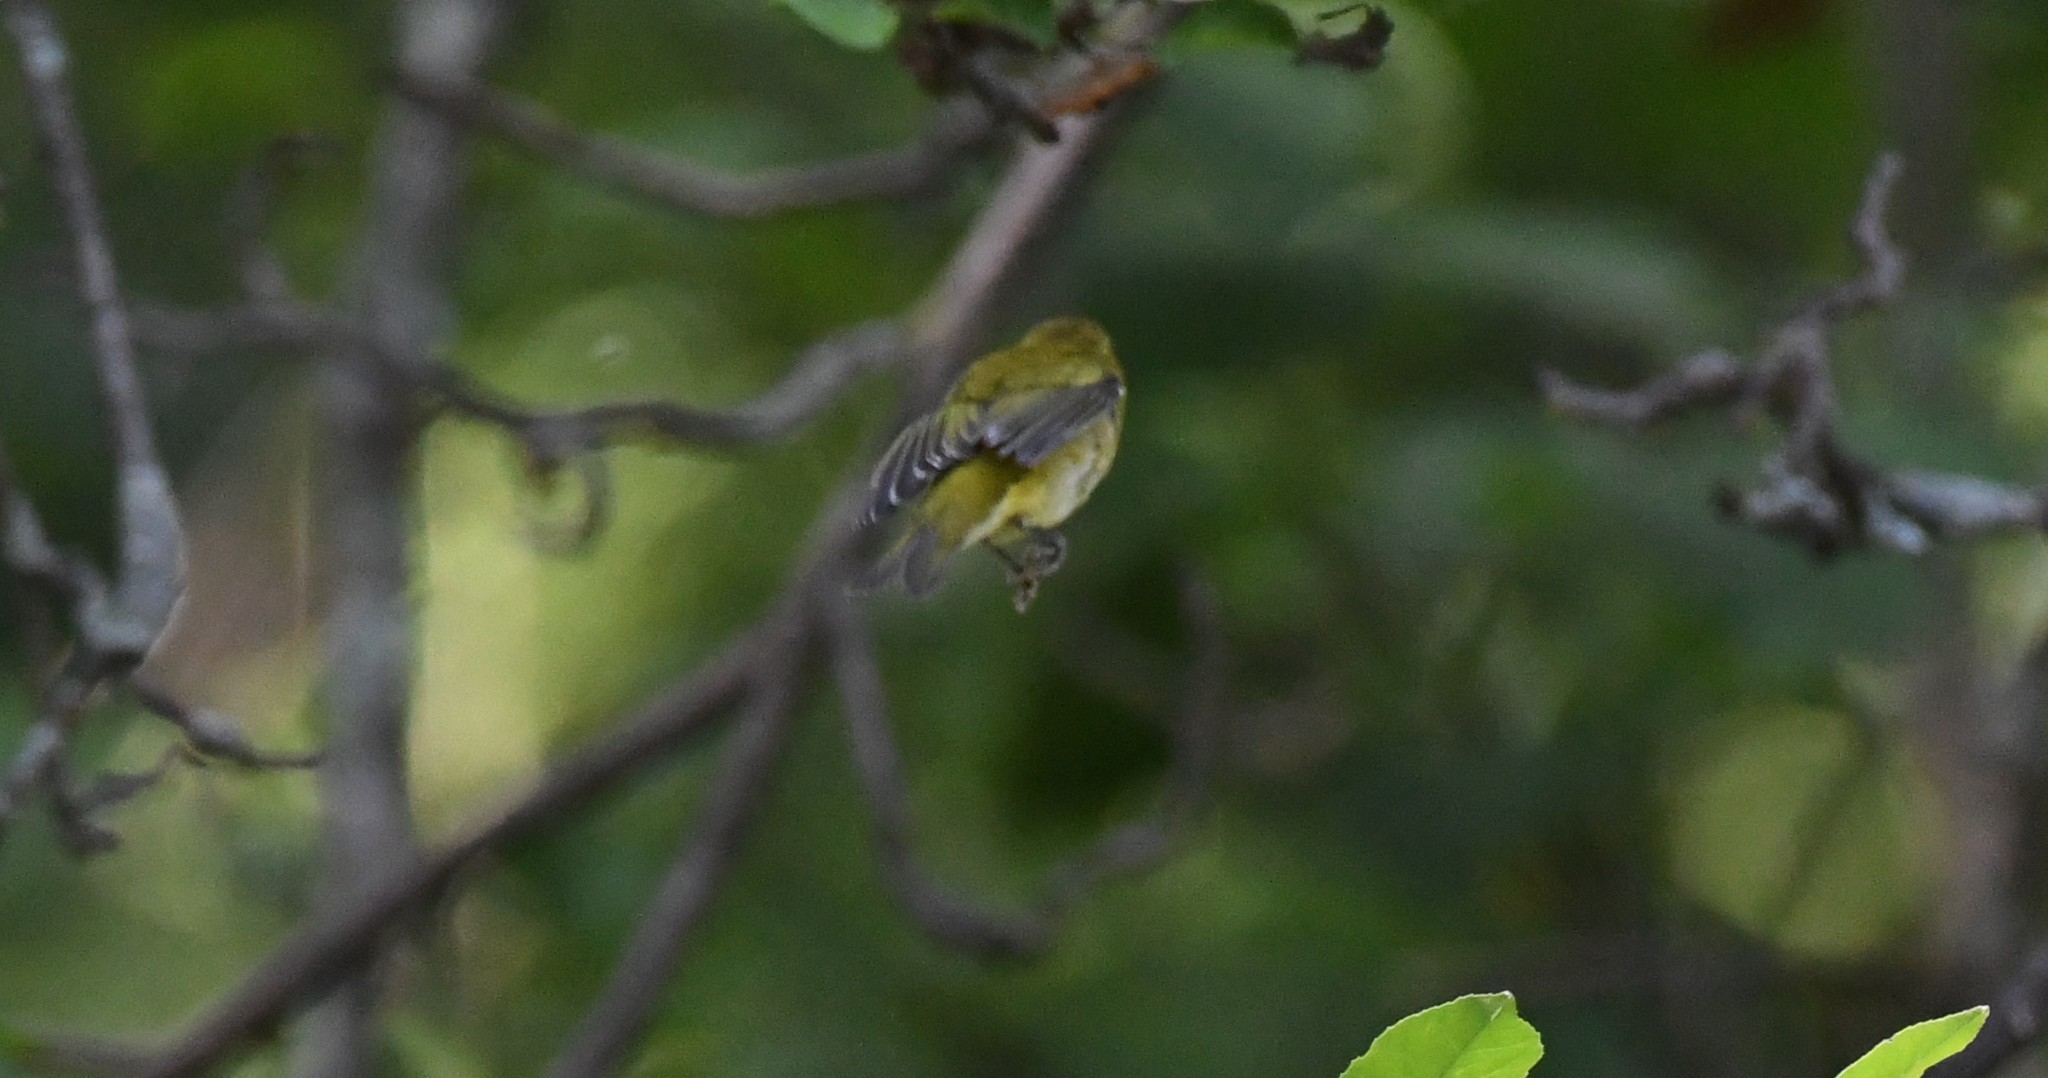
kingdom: Animalia
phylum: Chordata
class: Aves
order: Passeriformes
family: Parulidae
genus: Leiothlypis
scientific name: Leiothlypis peregrina
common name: Tennessee warbler
